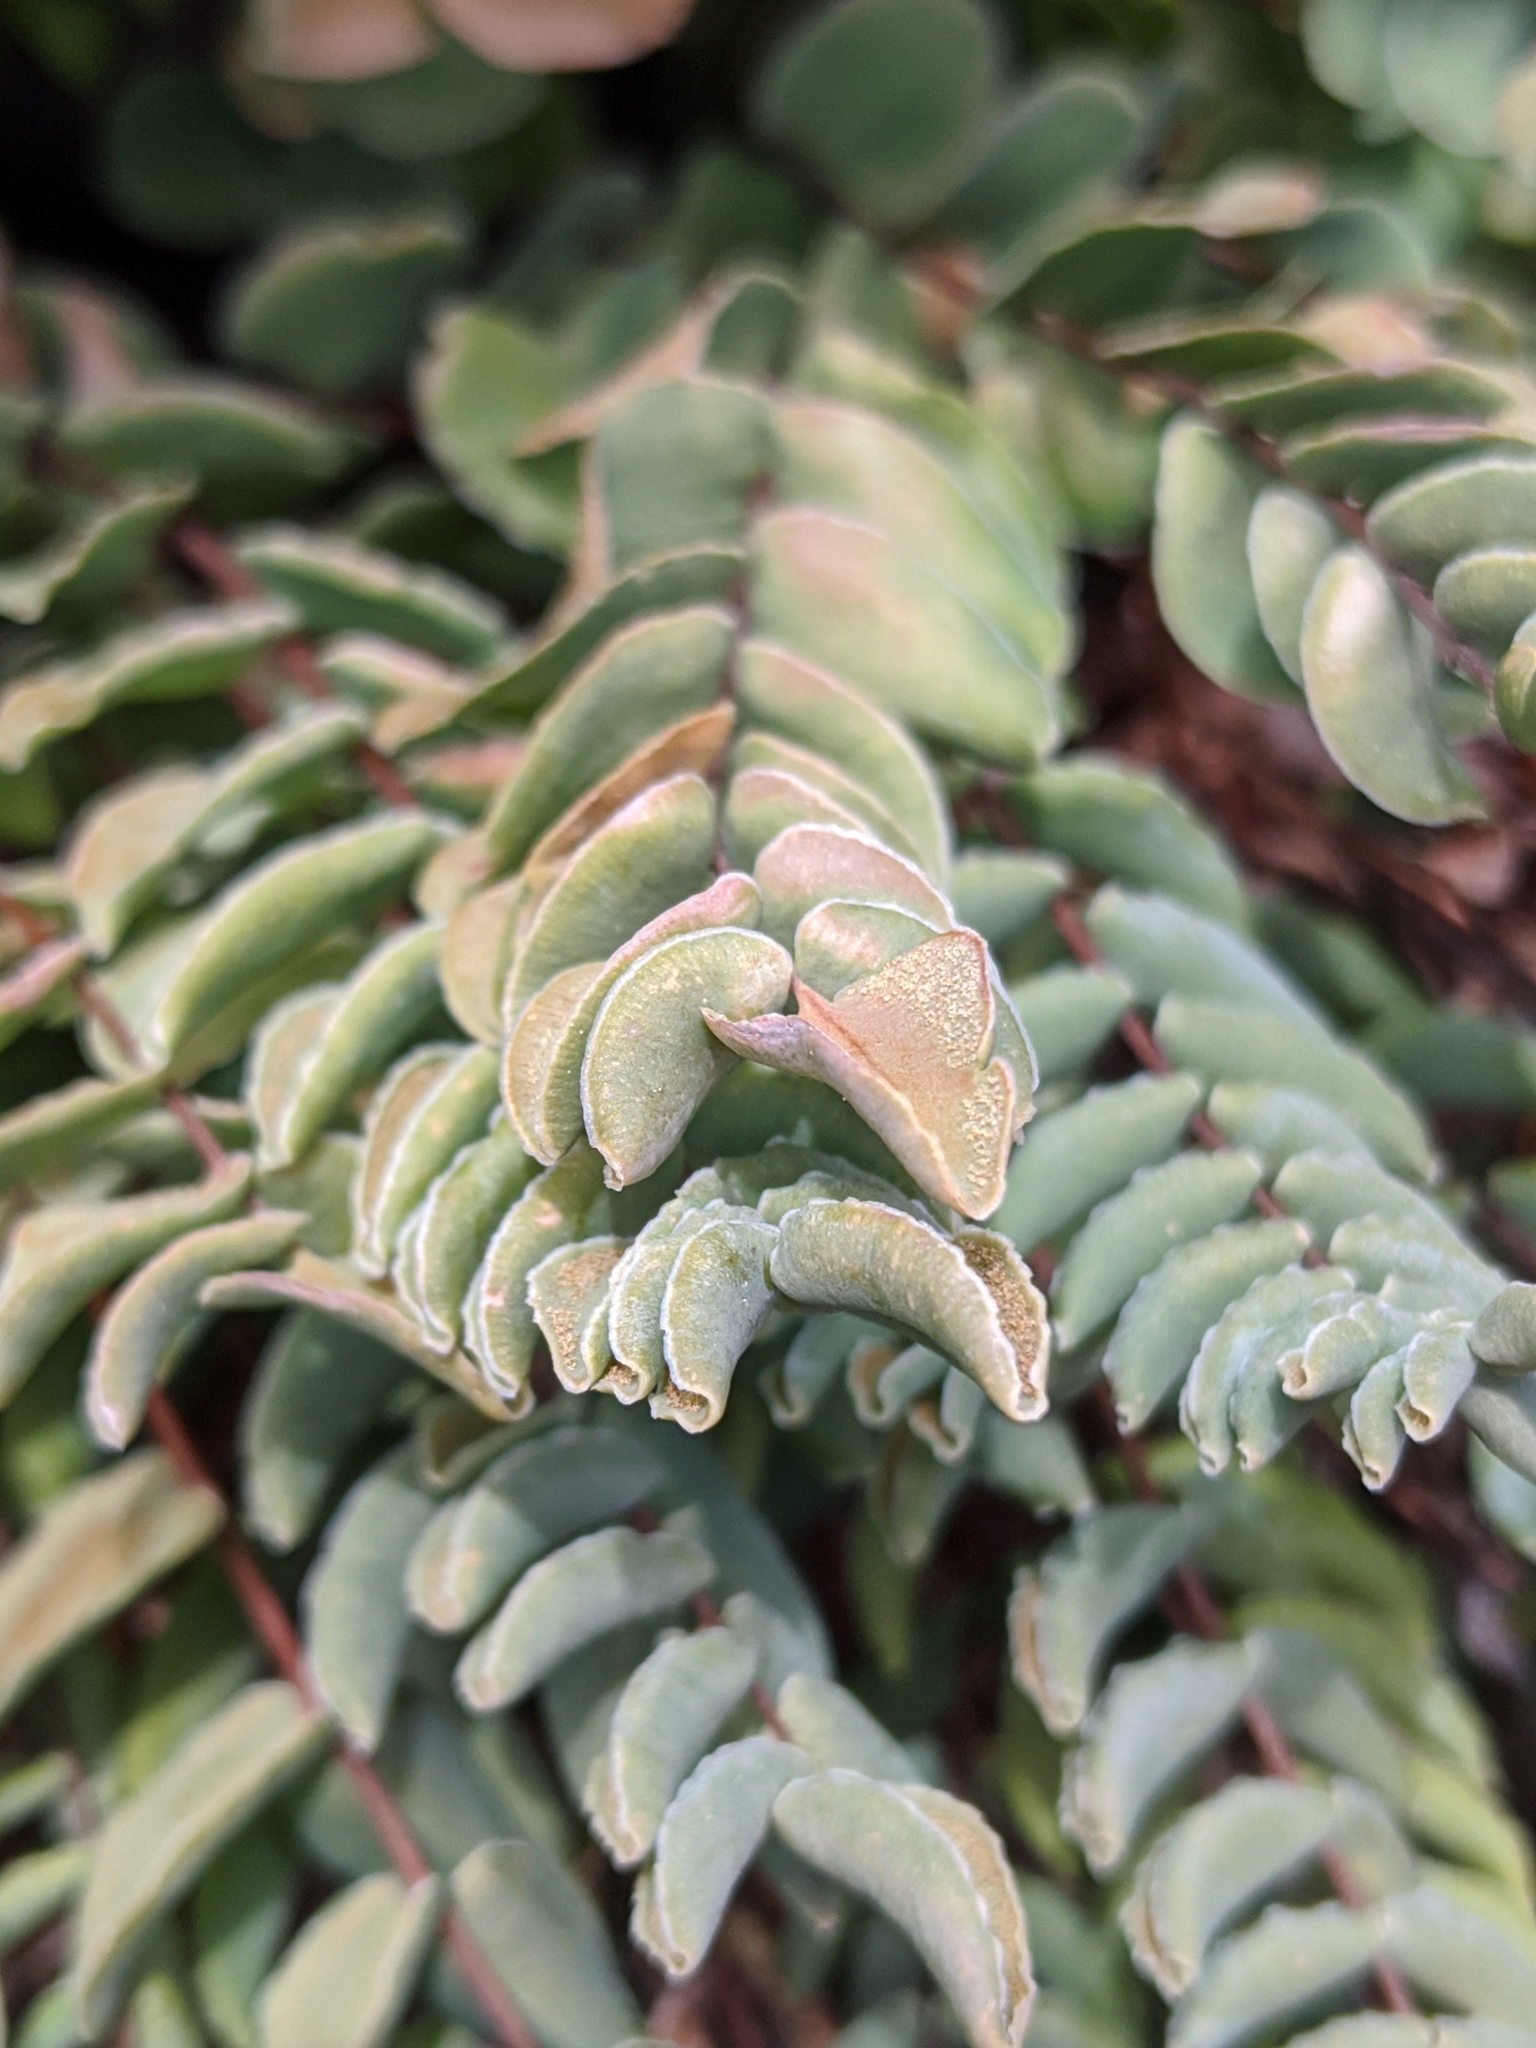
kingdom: Plantae
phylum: Tracheophyta
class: Polypodiopsida
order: Polypodiales
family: Pteridaceae
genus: Pellaea
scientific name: Pellaea bridgesii
